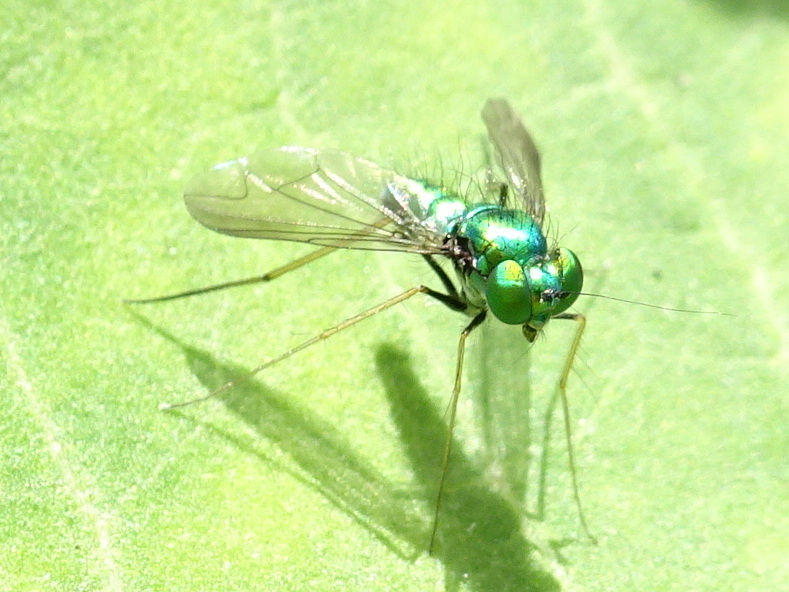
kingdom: Animalia
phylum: Arthropoda
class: Insecta
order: Diptera
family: Dolichopodidae
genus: Condylostylus
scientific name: Condylostylus comatus
